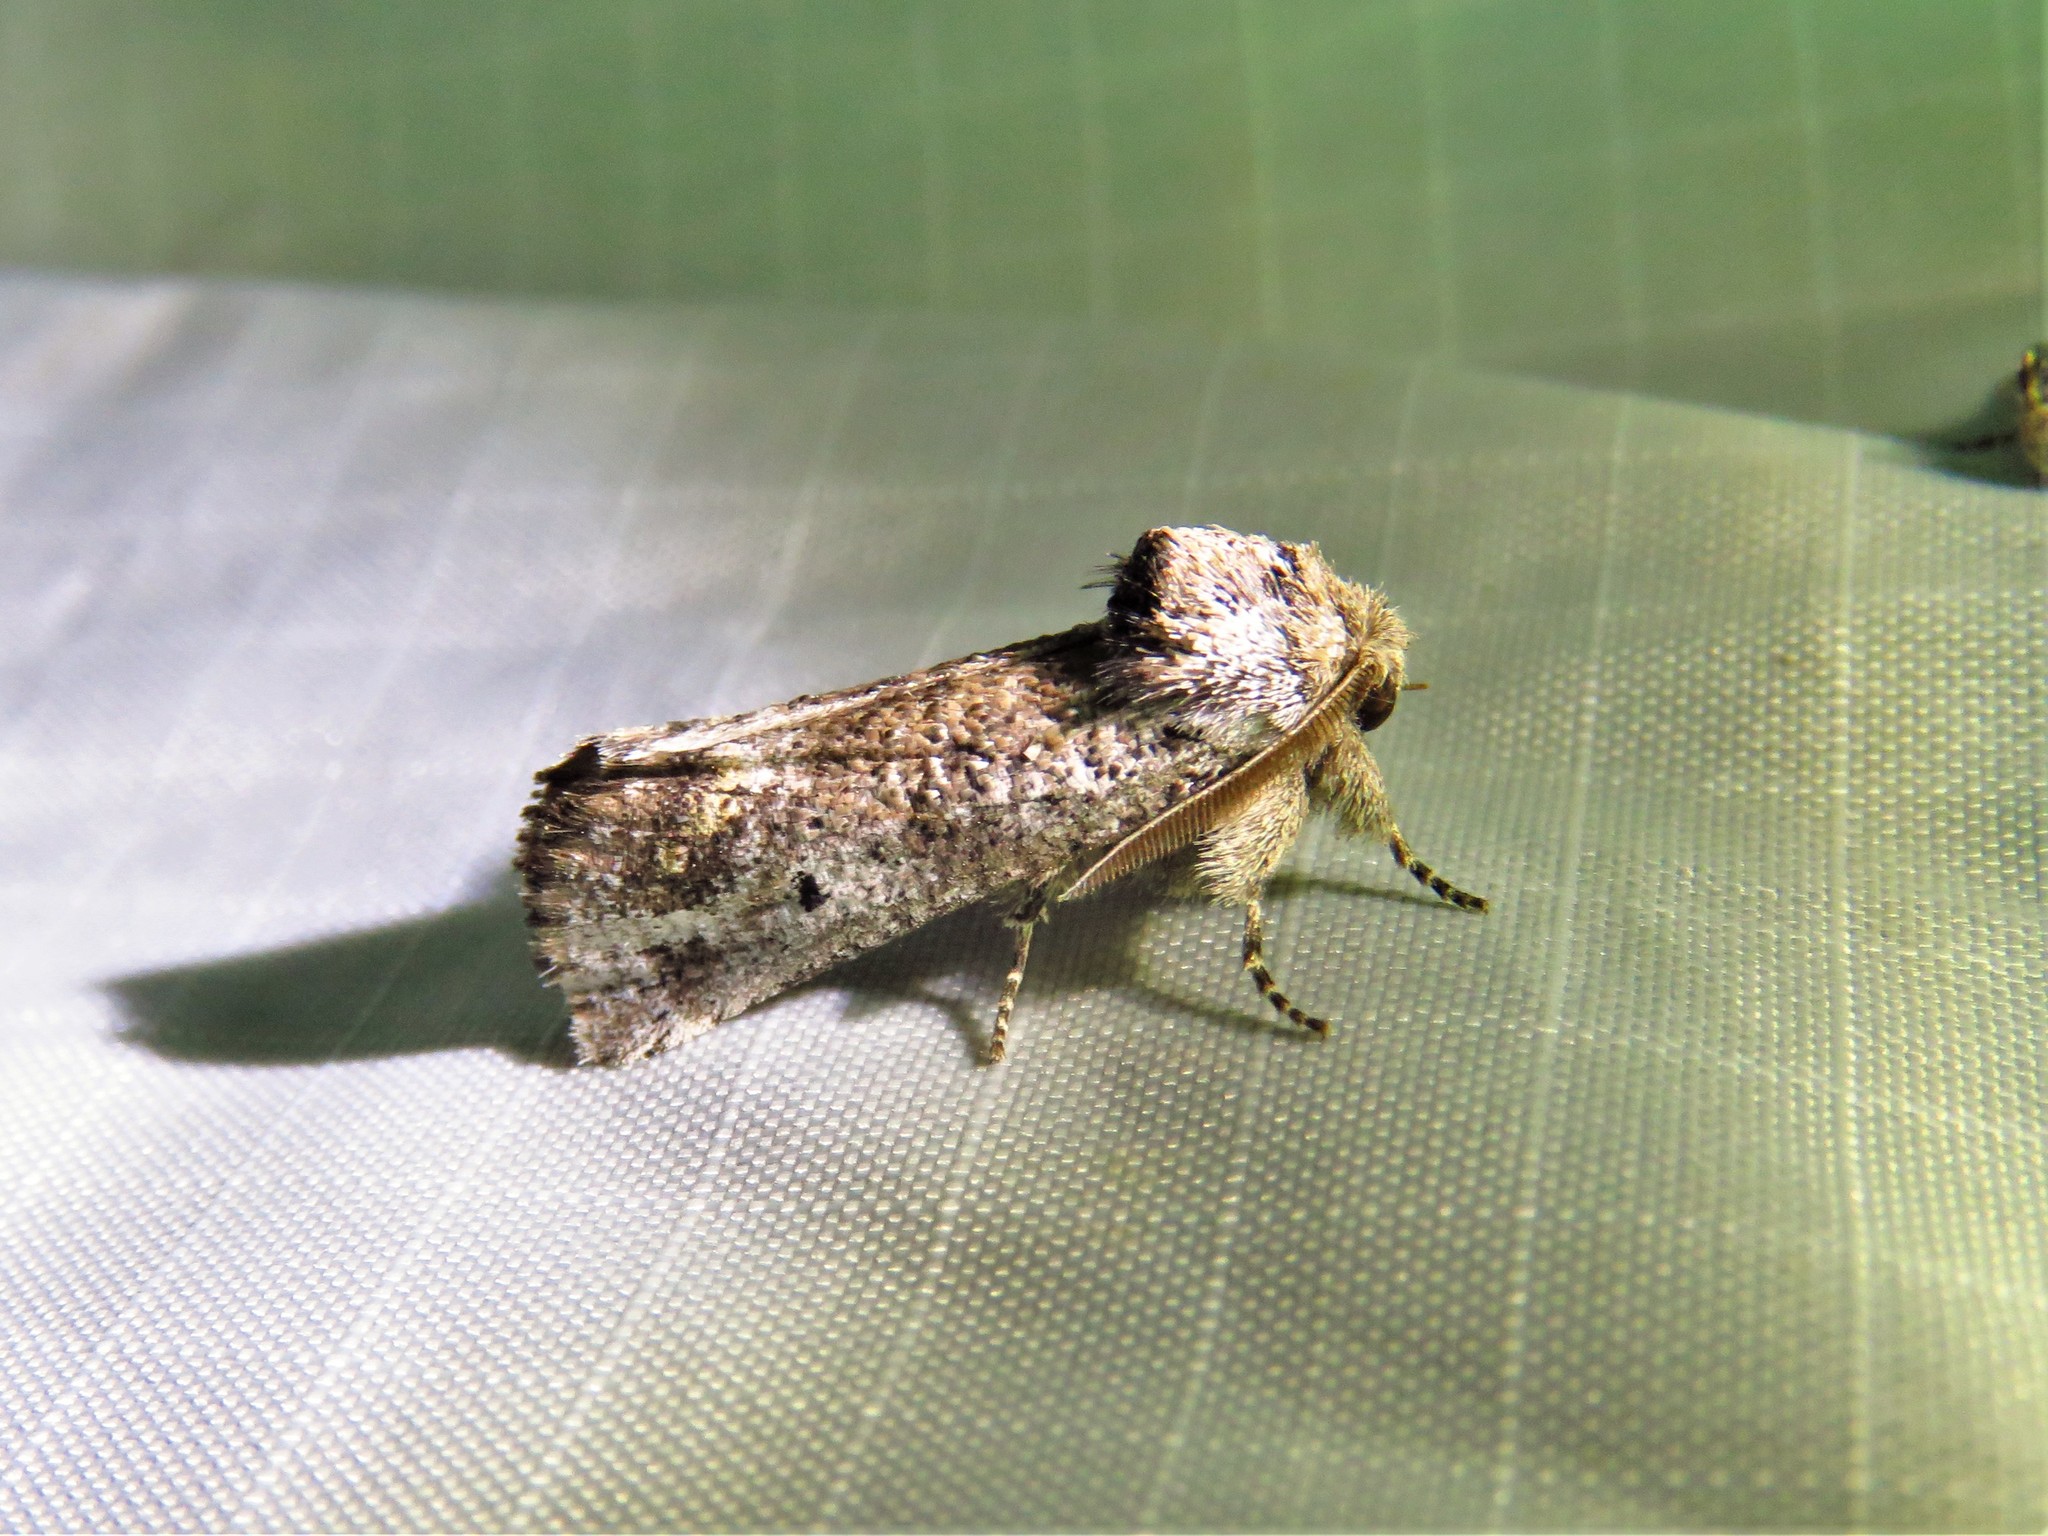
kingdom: Animalia
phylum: Arthropoda
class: Insecta
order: Lepidoptera
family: Erebidae
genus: Aon
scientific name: Aon noctuiformis
